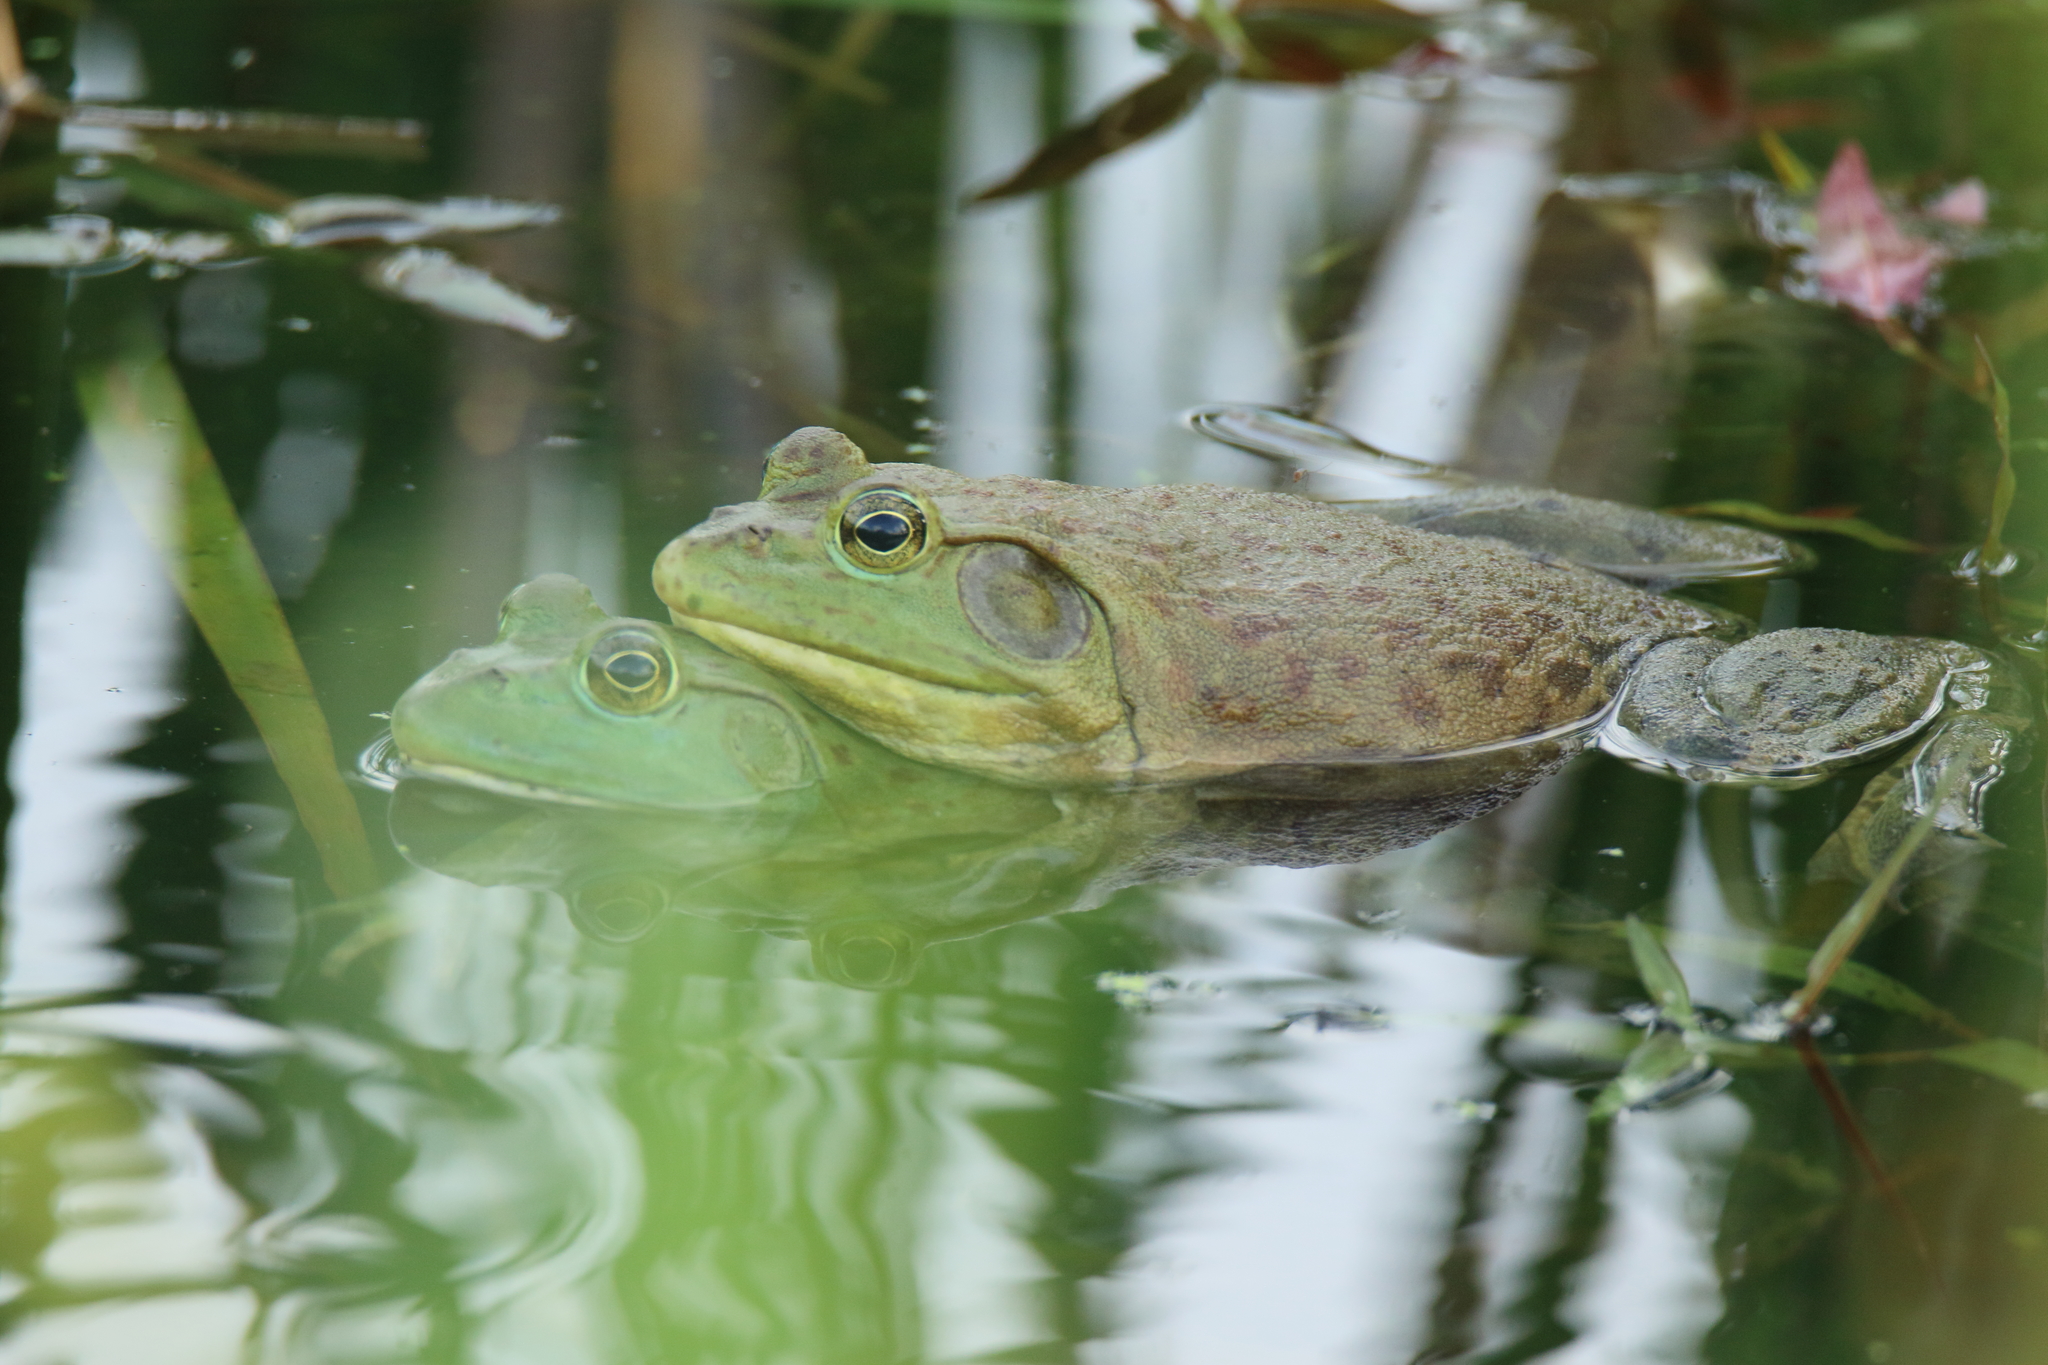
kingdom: Animalia
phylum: Chordata
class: Amphibia
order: Anura
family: Ranidae
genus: Lithobates
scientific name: Lithobates catesbeianus
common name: American bullfrog
